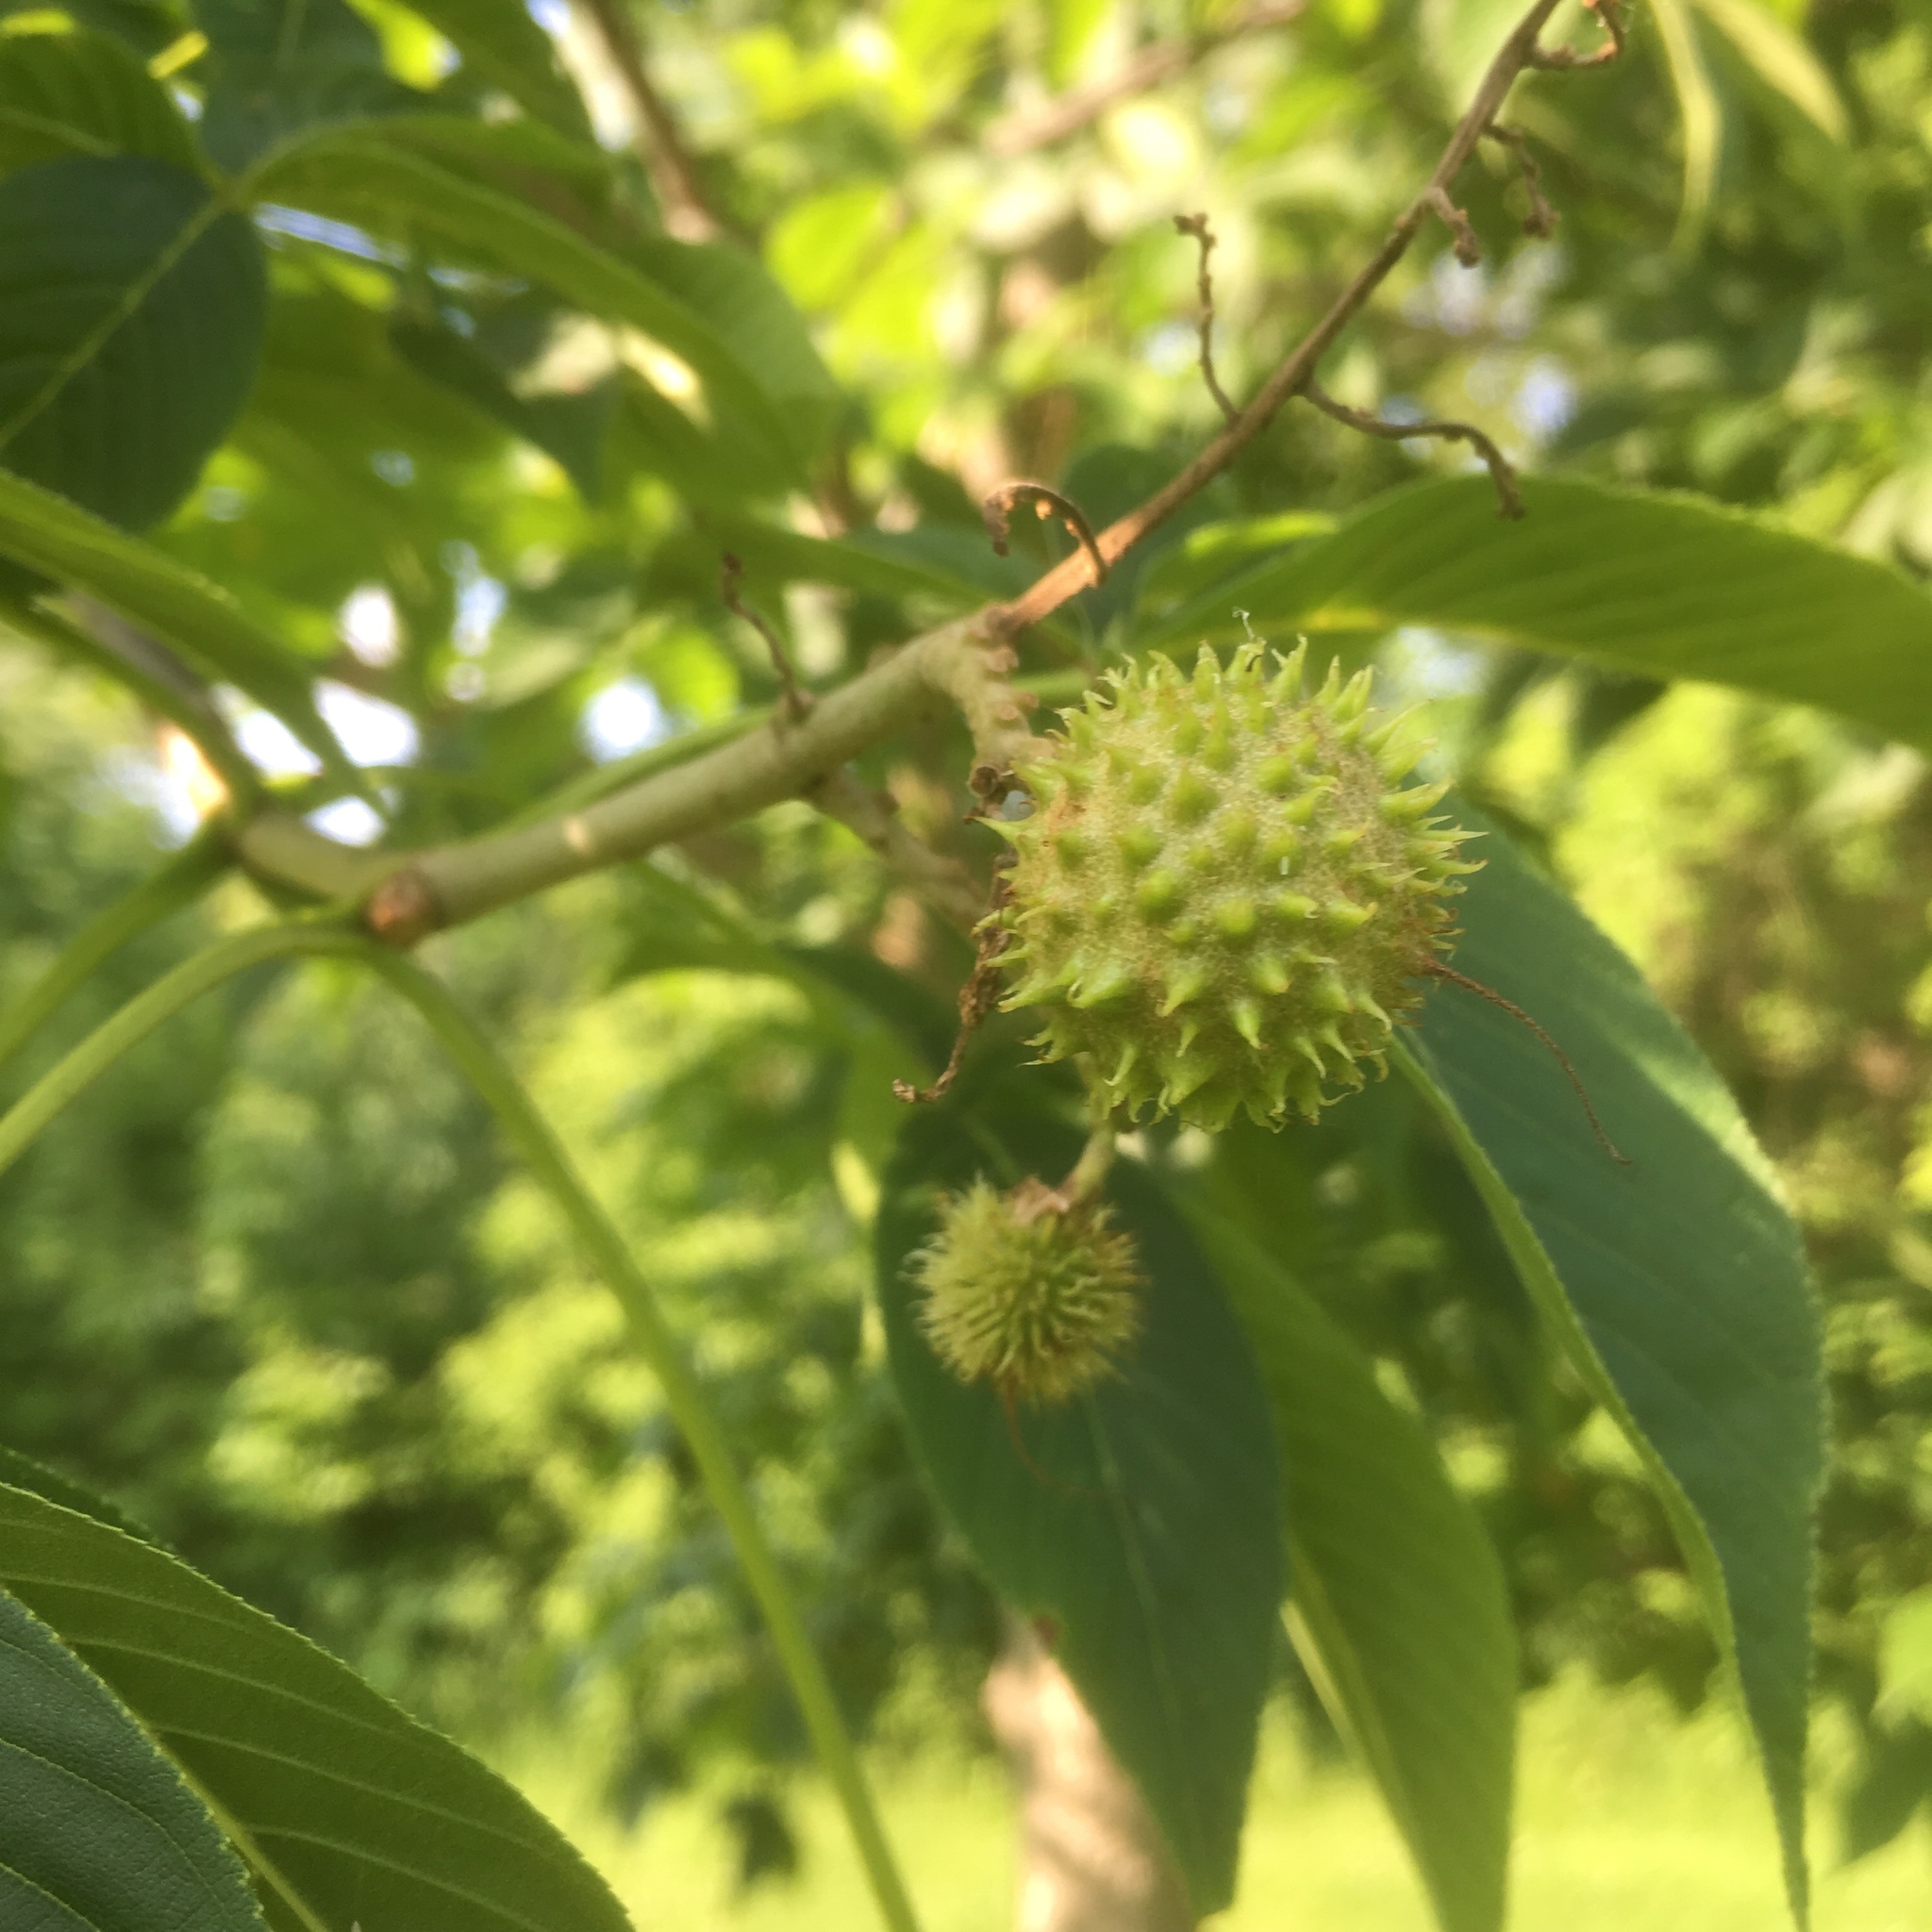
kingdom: Plantae
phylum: Tracheophyta
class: Magnoliopsida
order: Sapindales
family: Sapindaceae
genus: Aesculus
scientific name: Aesculus glabra
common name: Ohio buckeye
